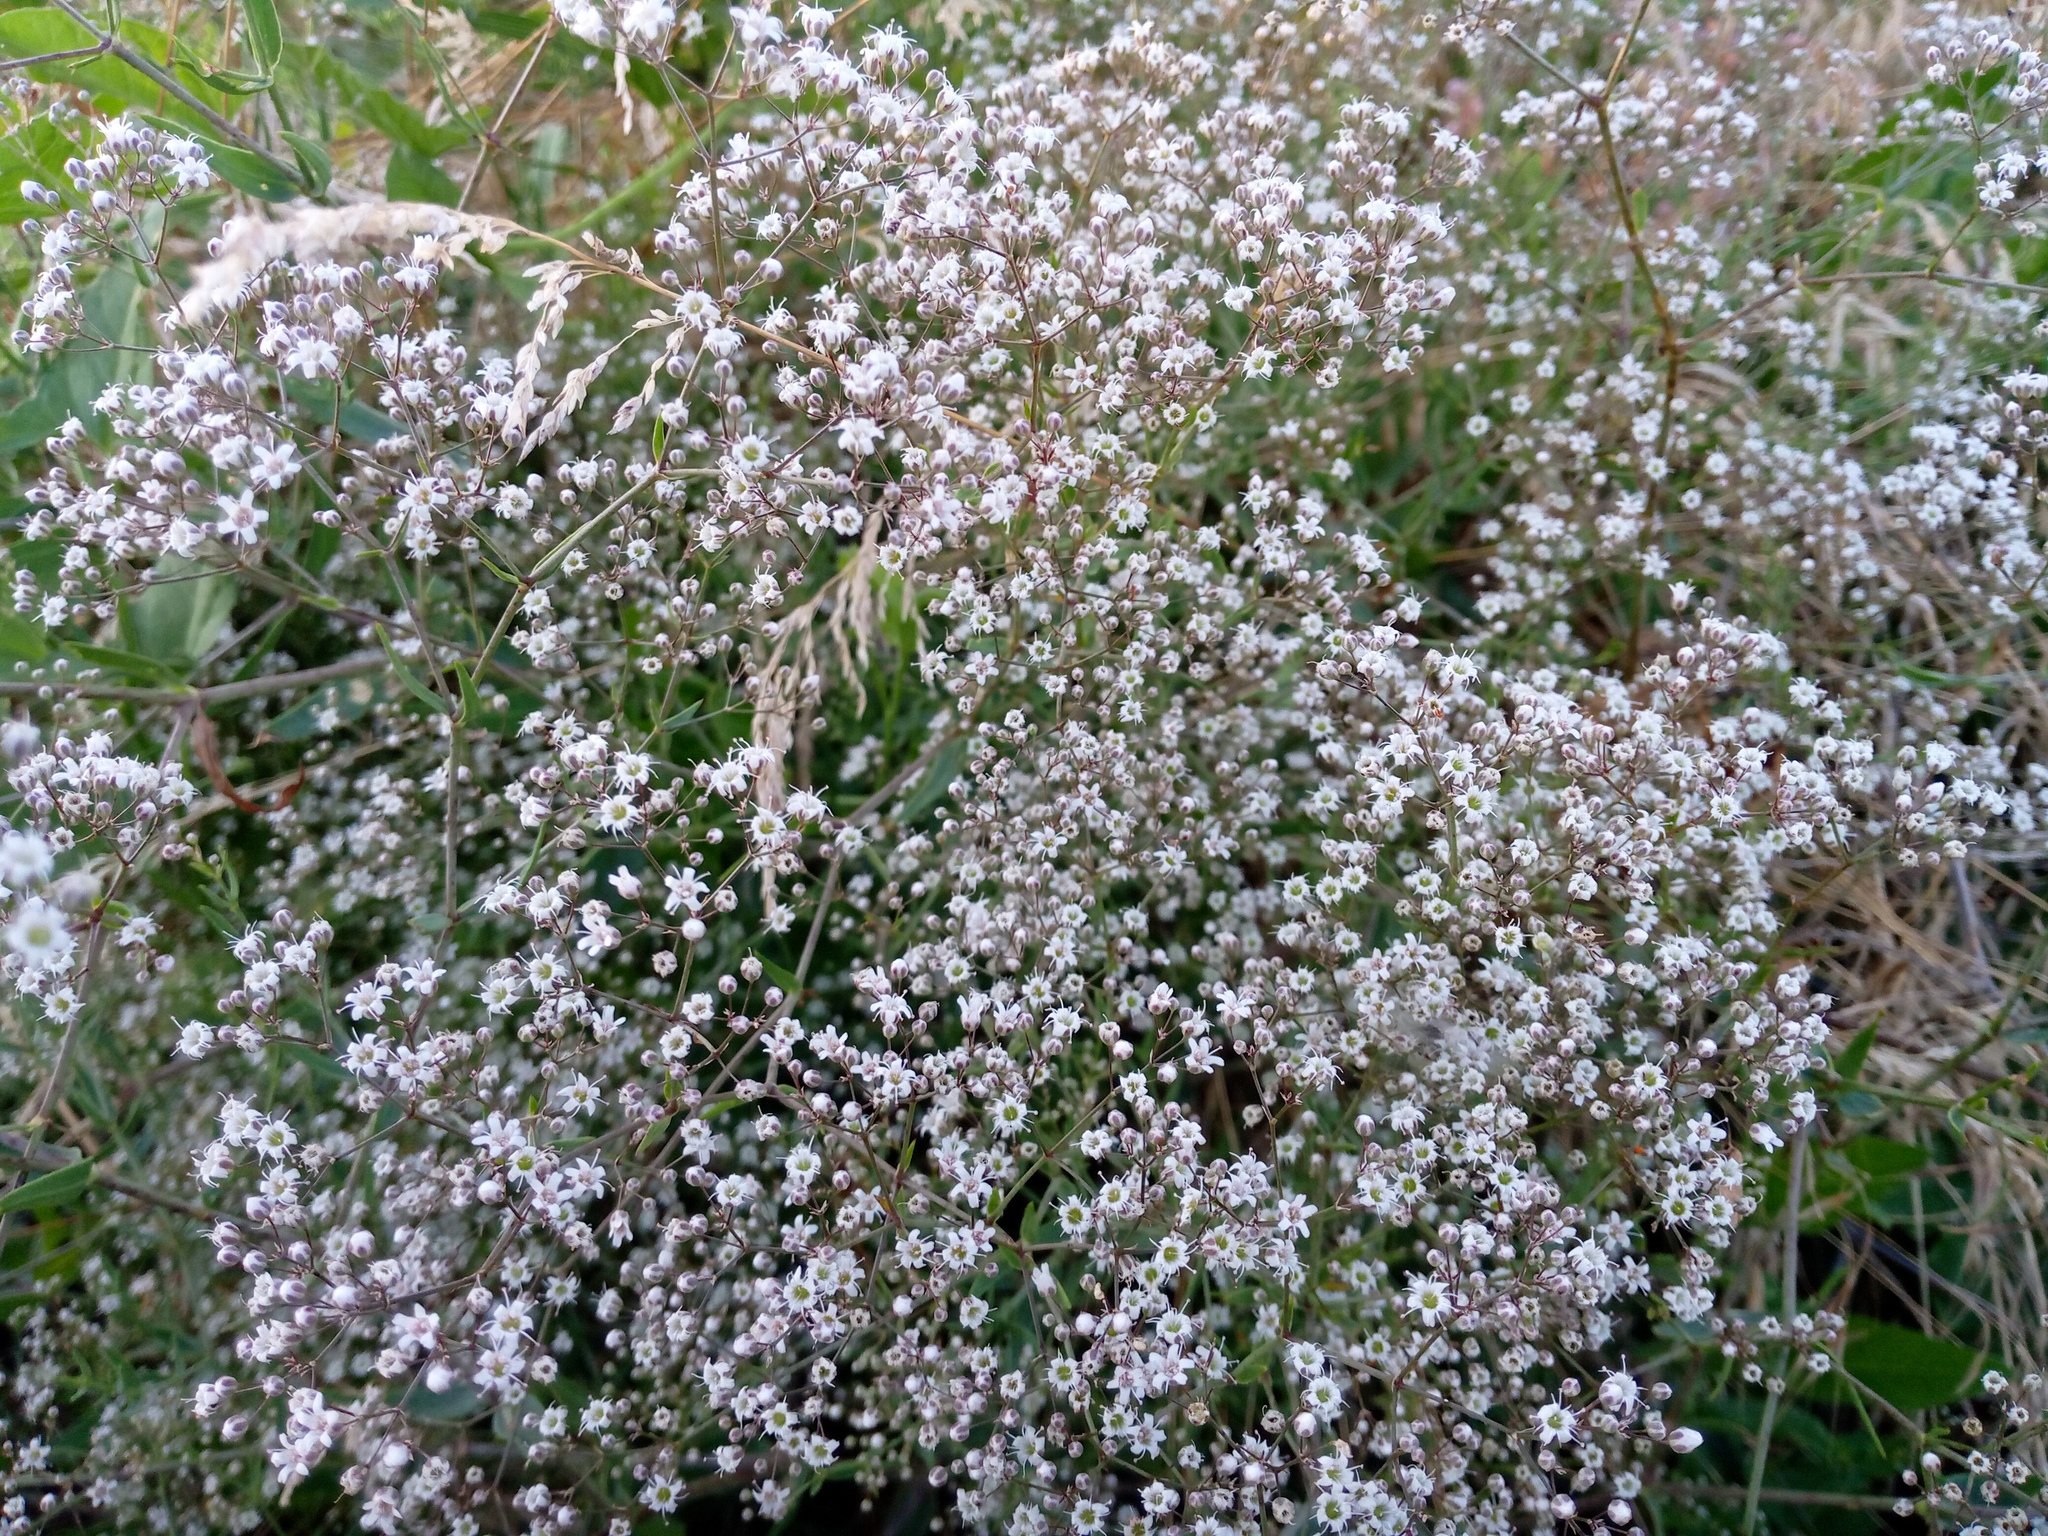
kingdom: Plantae
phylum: Tracheophyta
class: Magnoliopsida
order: Caryophyllales
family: Caryophyllaceae
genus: Gypsophila
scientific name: Gypsophila paniculata
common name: Baby's-breath
